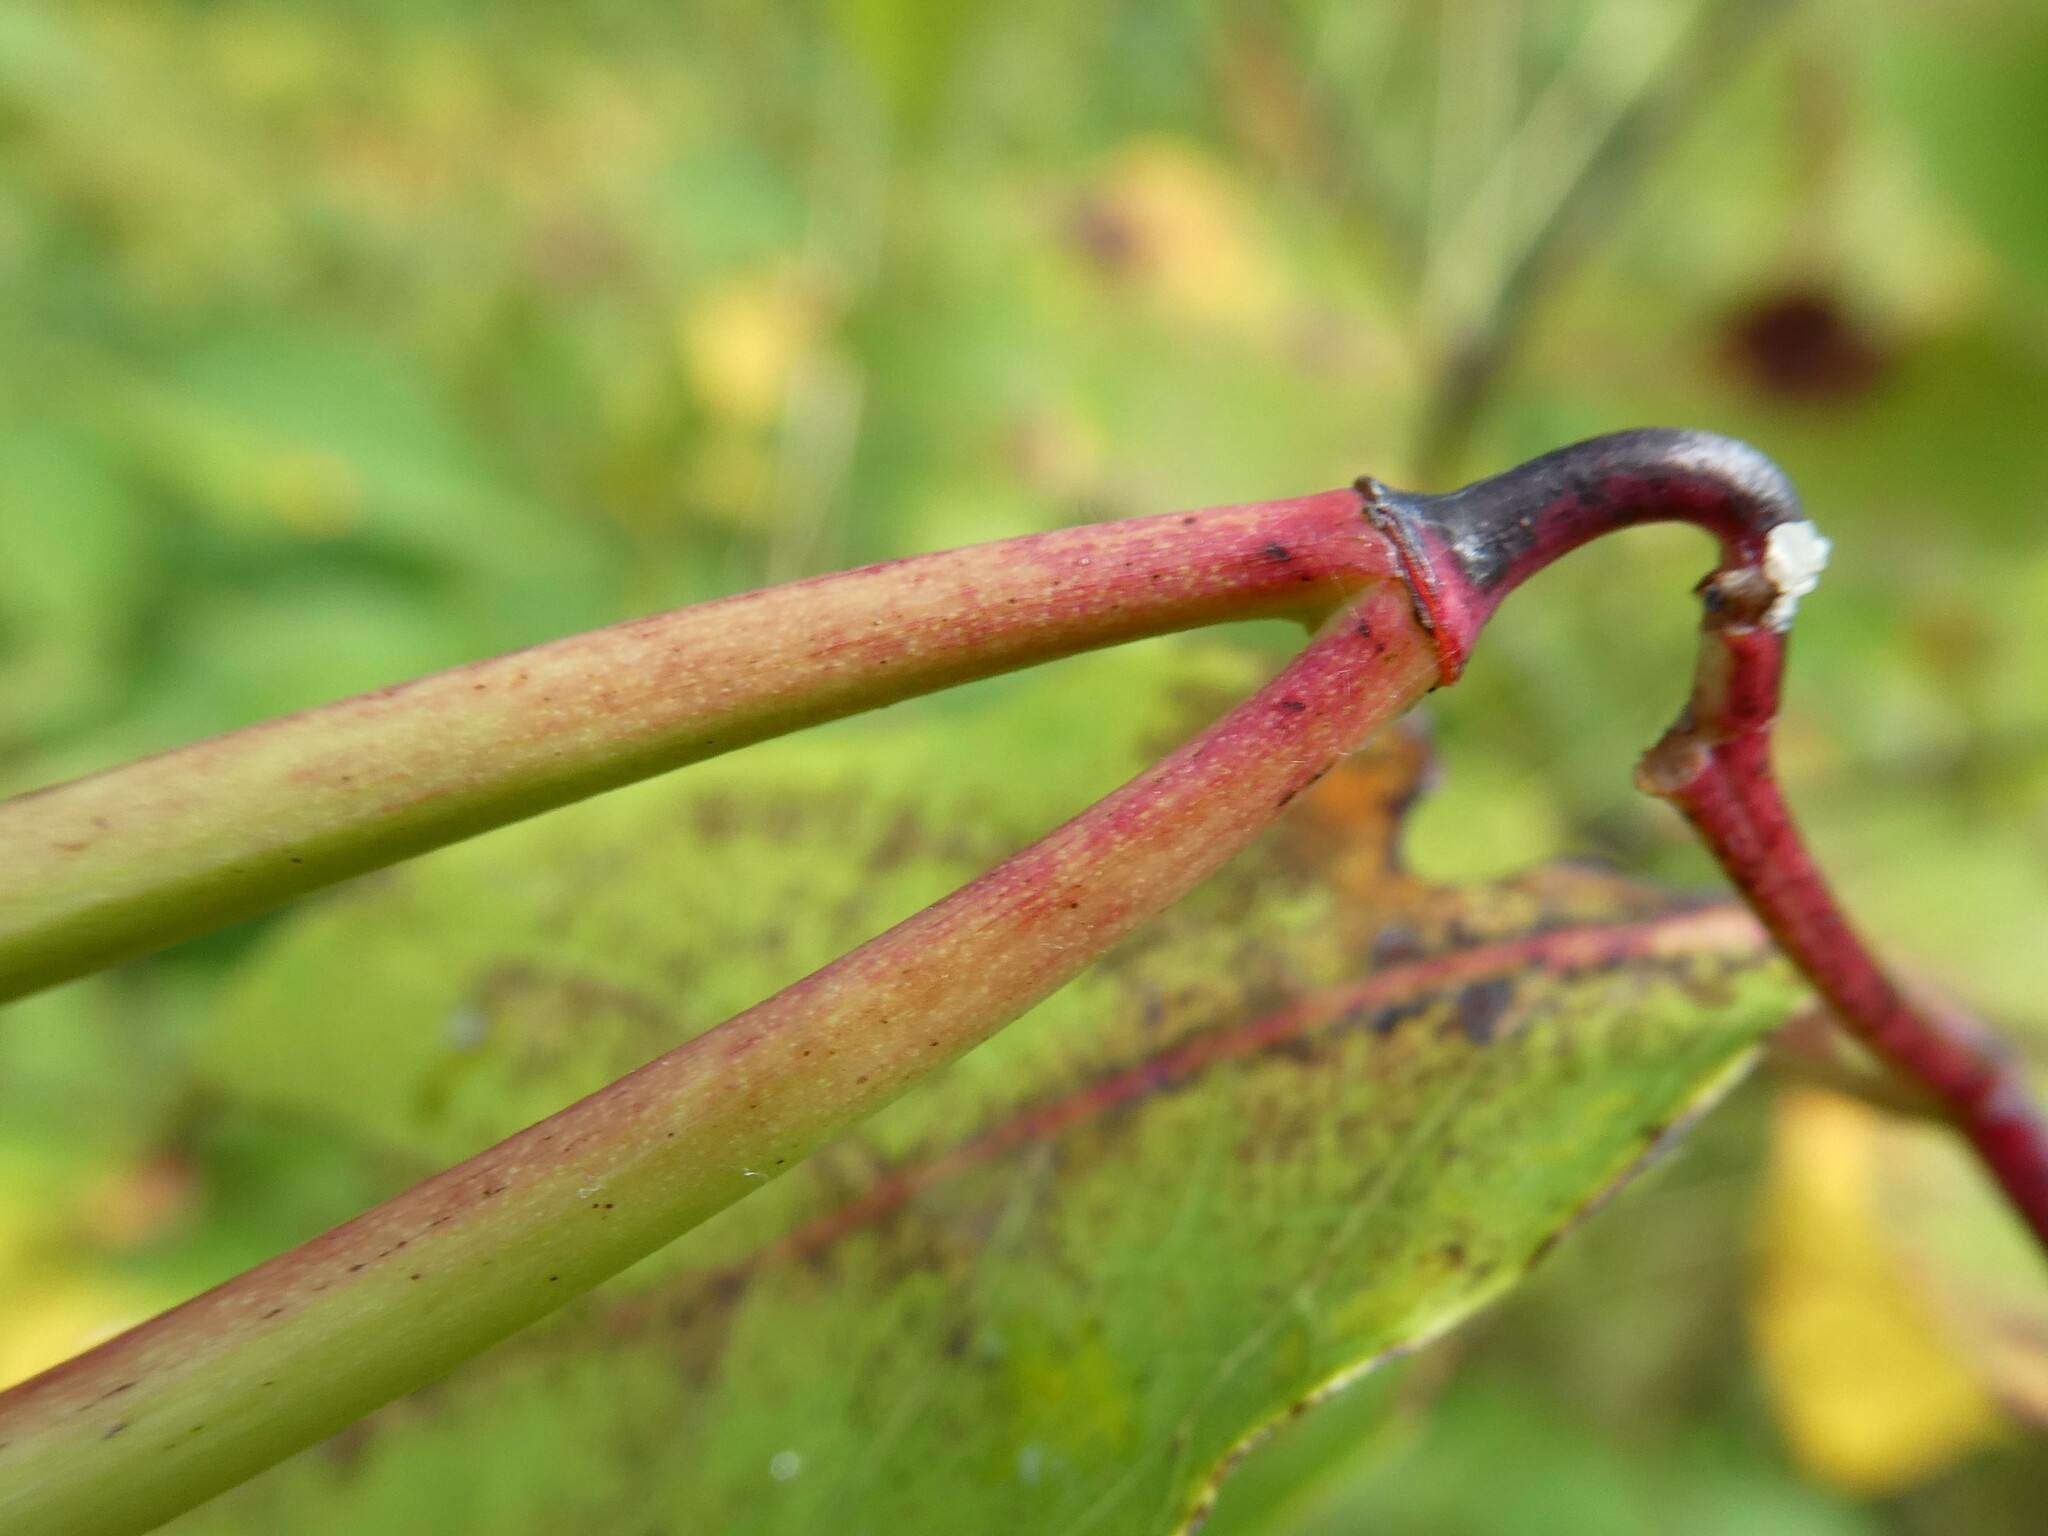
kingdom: Plantae
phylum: Tracheophyta
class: Magnoliopsida
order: Gentianales
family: Apocynaceae
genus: Apocynum
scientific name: Apocynum androsaemifolium
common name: Spreading dogbane
